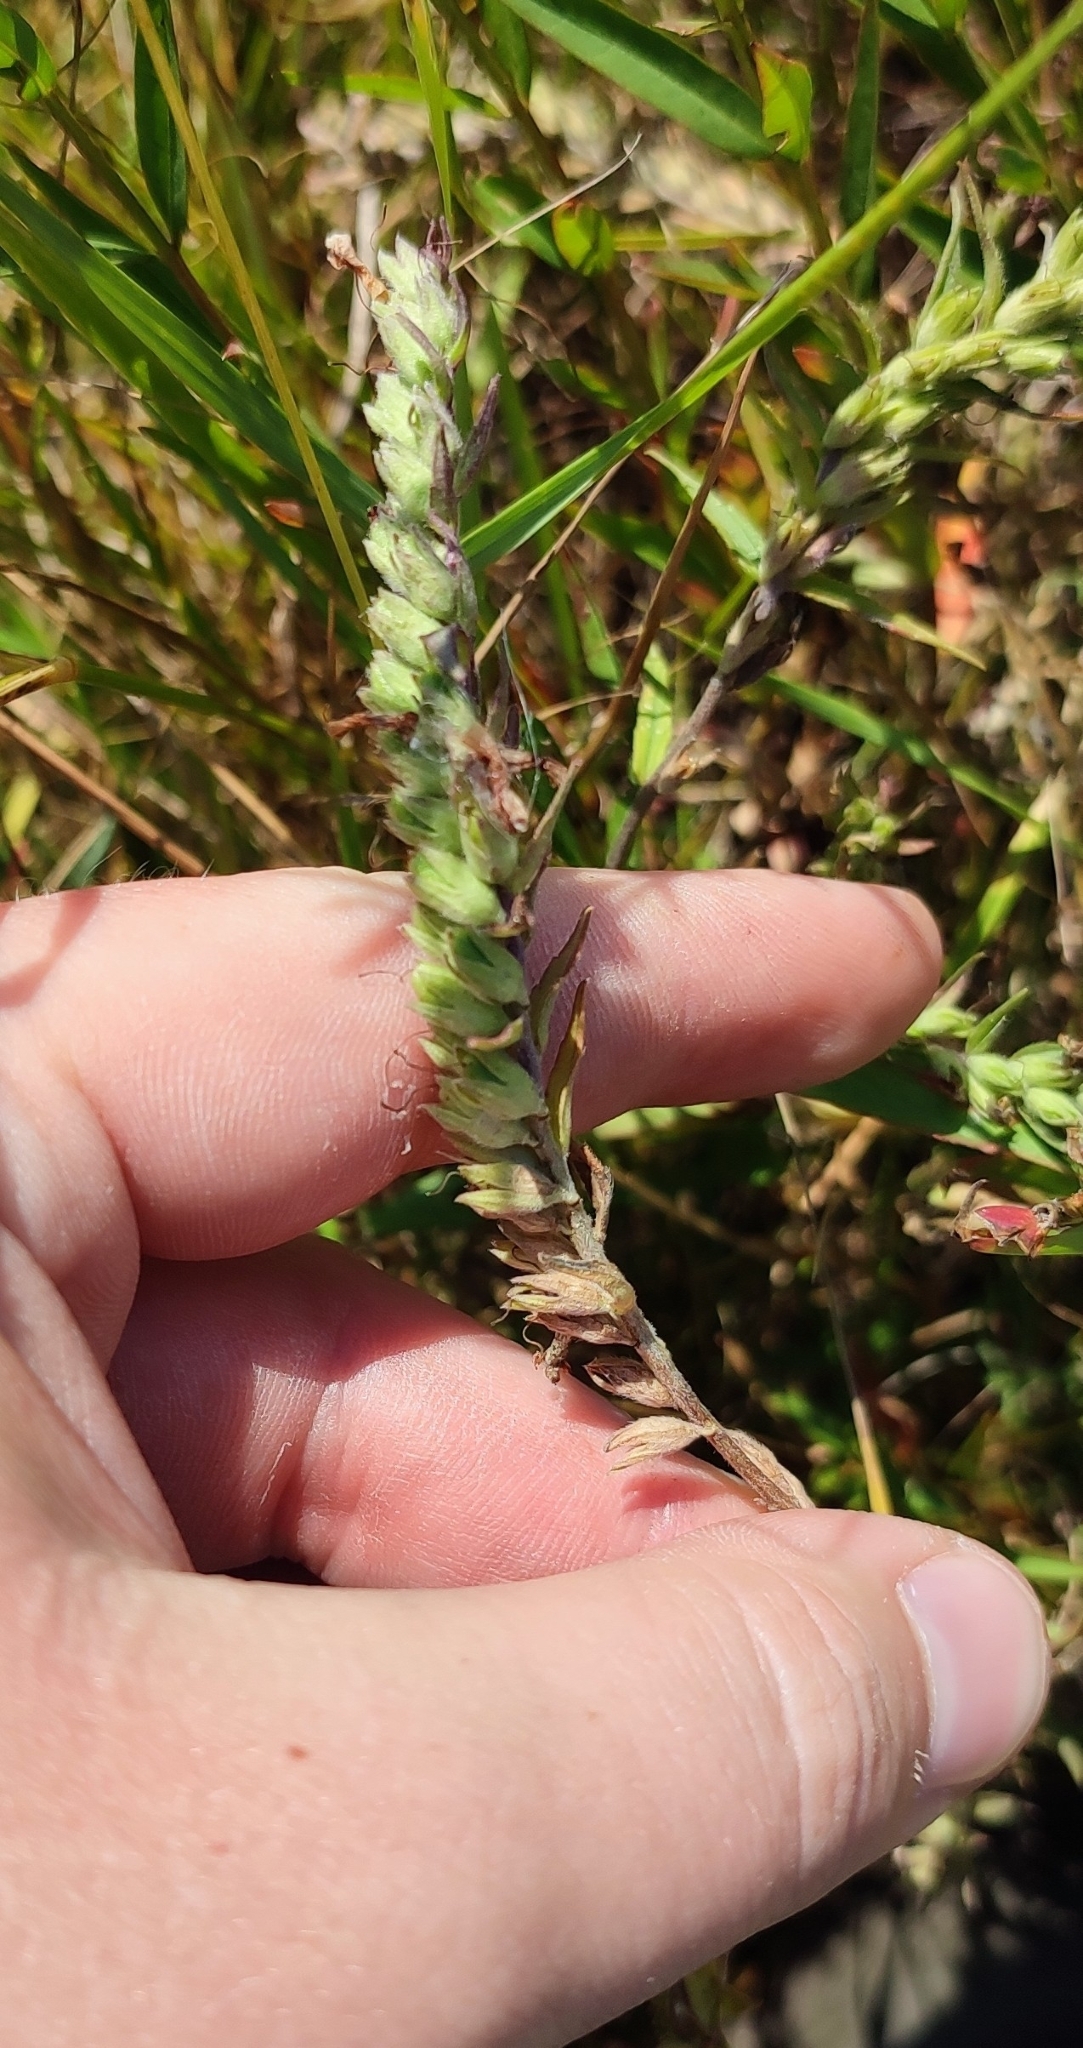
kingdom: Plantae
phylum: Tracheophyta
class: Magnoliopsida
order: Lamiales
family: Orobanchaceae
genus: Odontites
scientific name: Odontites vulgaris
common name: Broomrape
